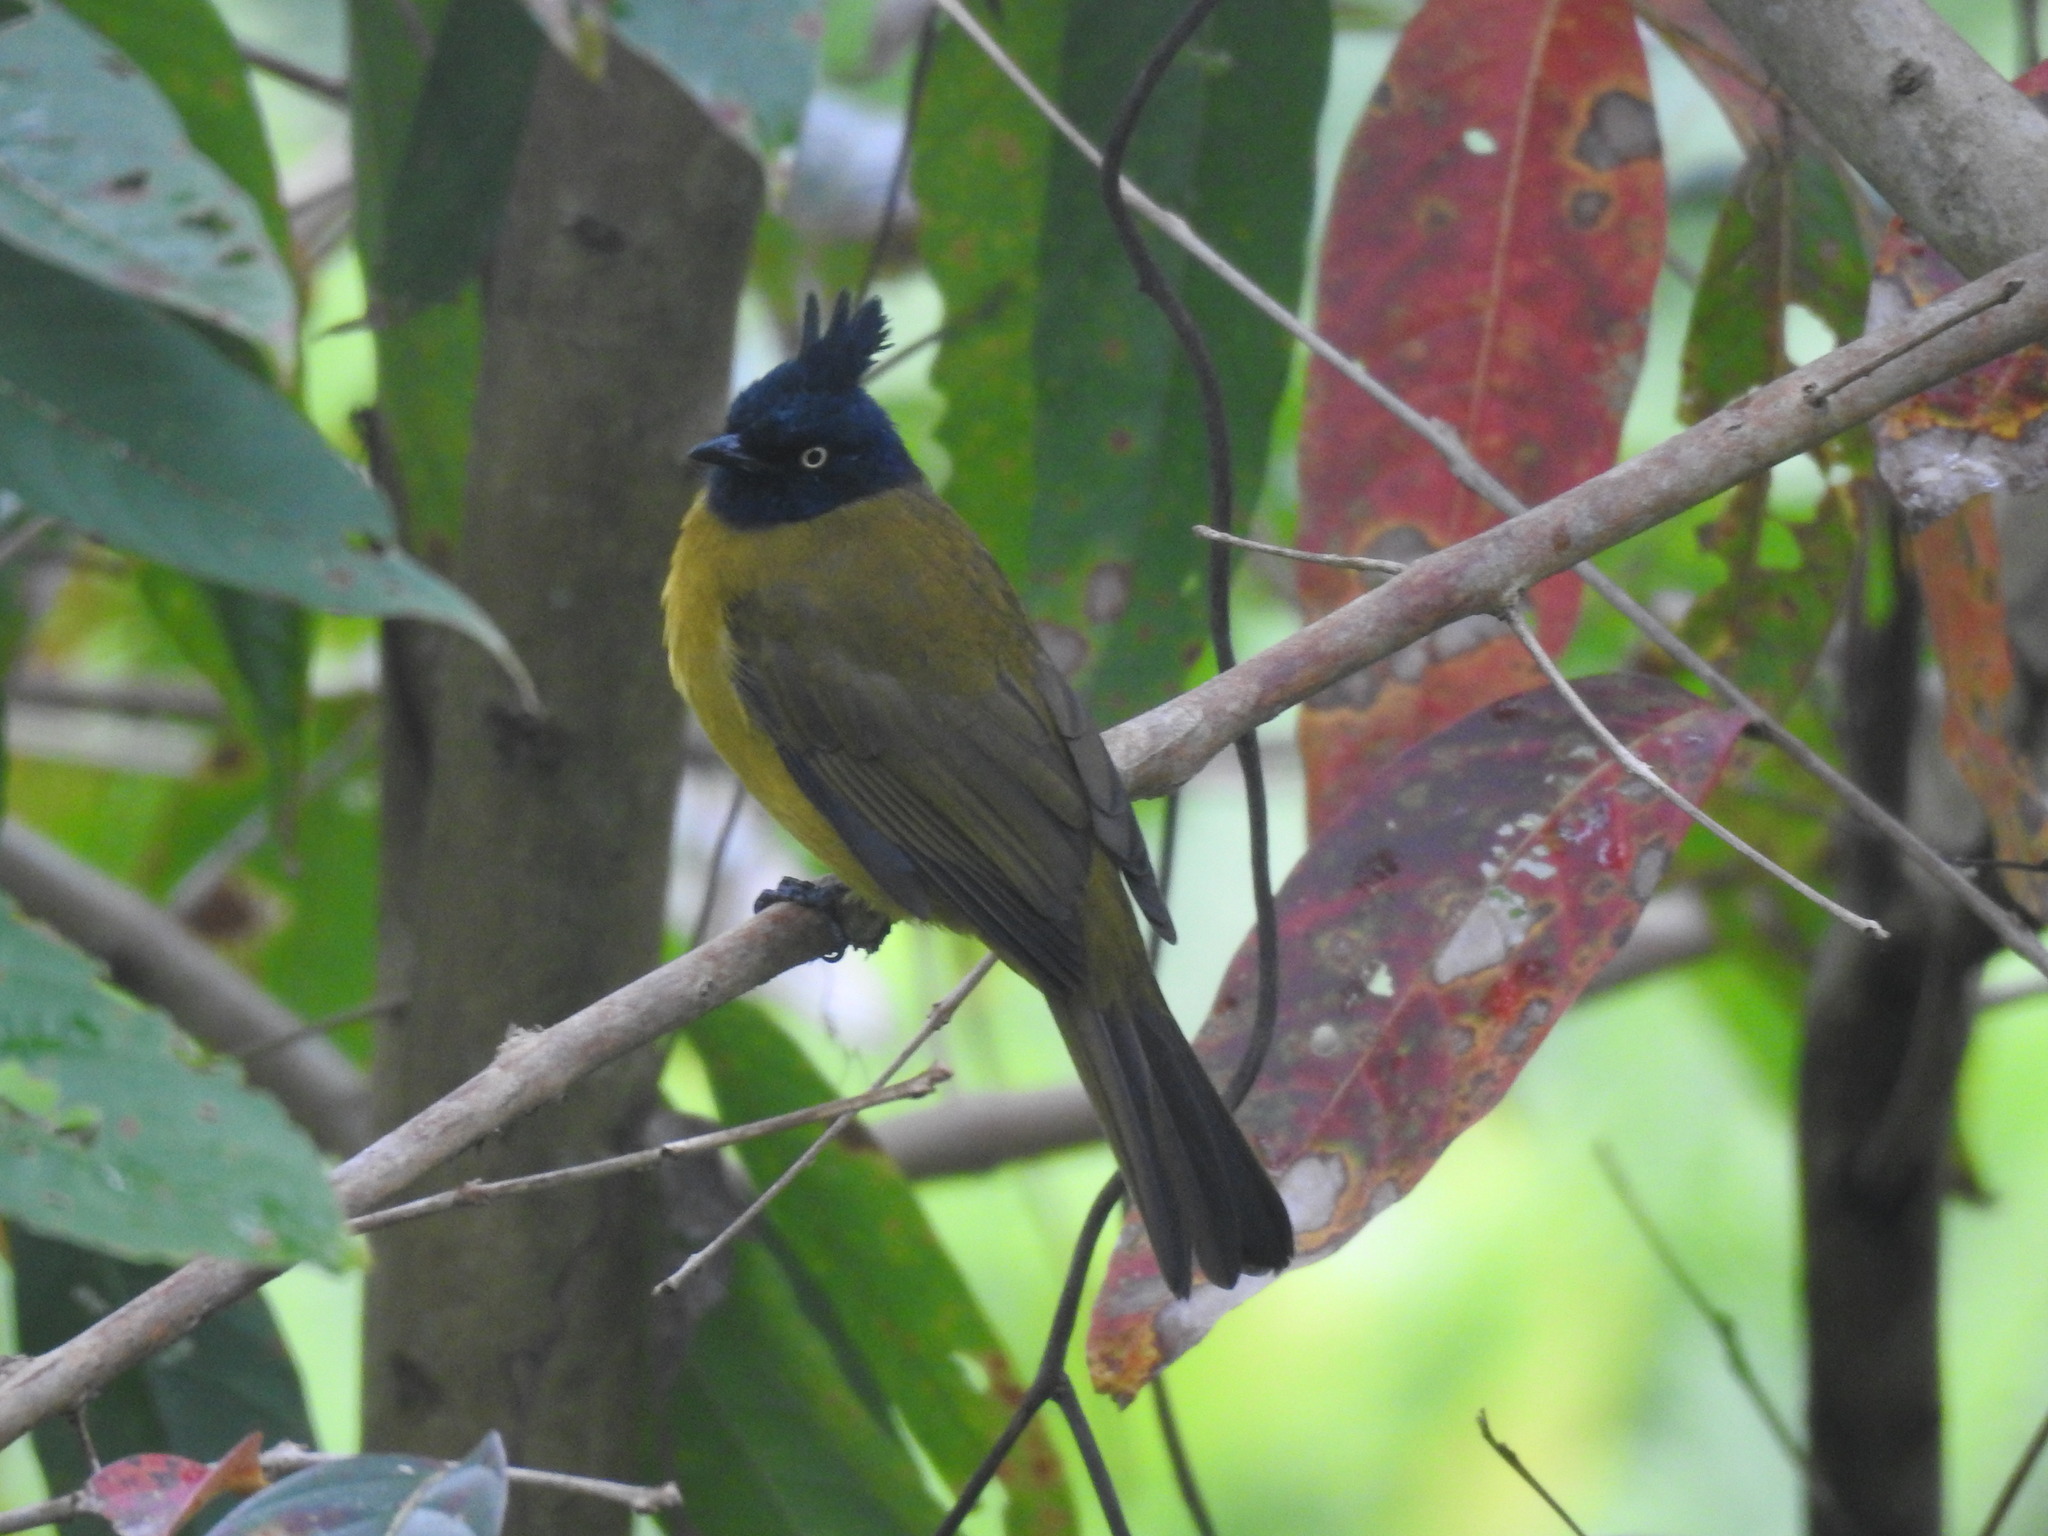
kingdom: Animalia
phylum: Chordata
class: Aves
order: Passeriformes
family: Pycnonotidae
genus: Pycnonotus
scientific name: Pycnonotus flaviventris
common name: Black-crested bulbul
